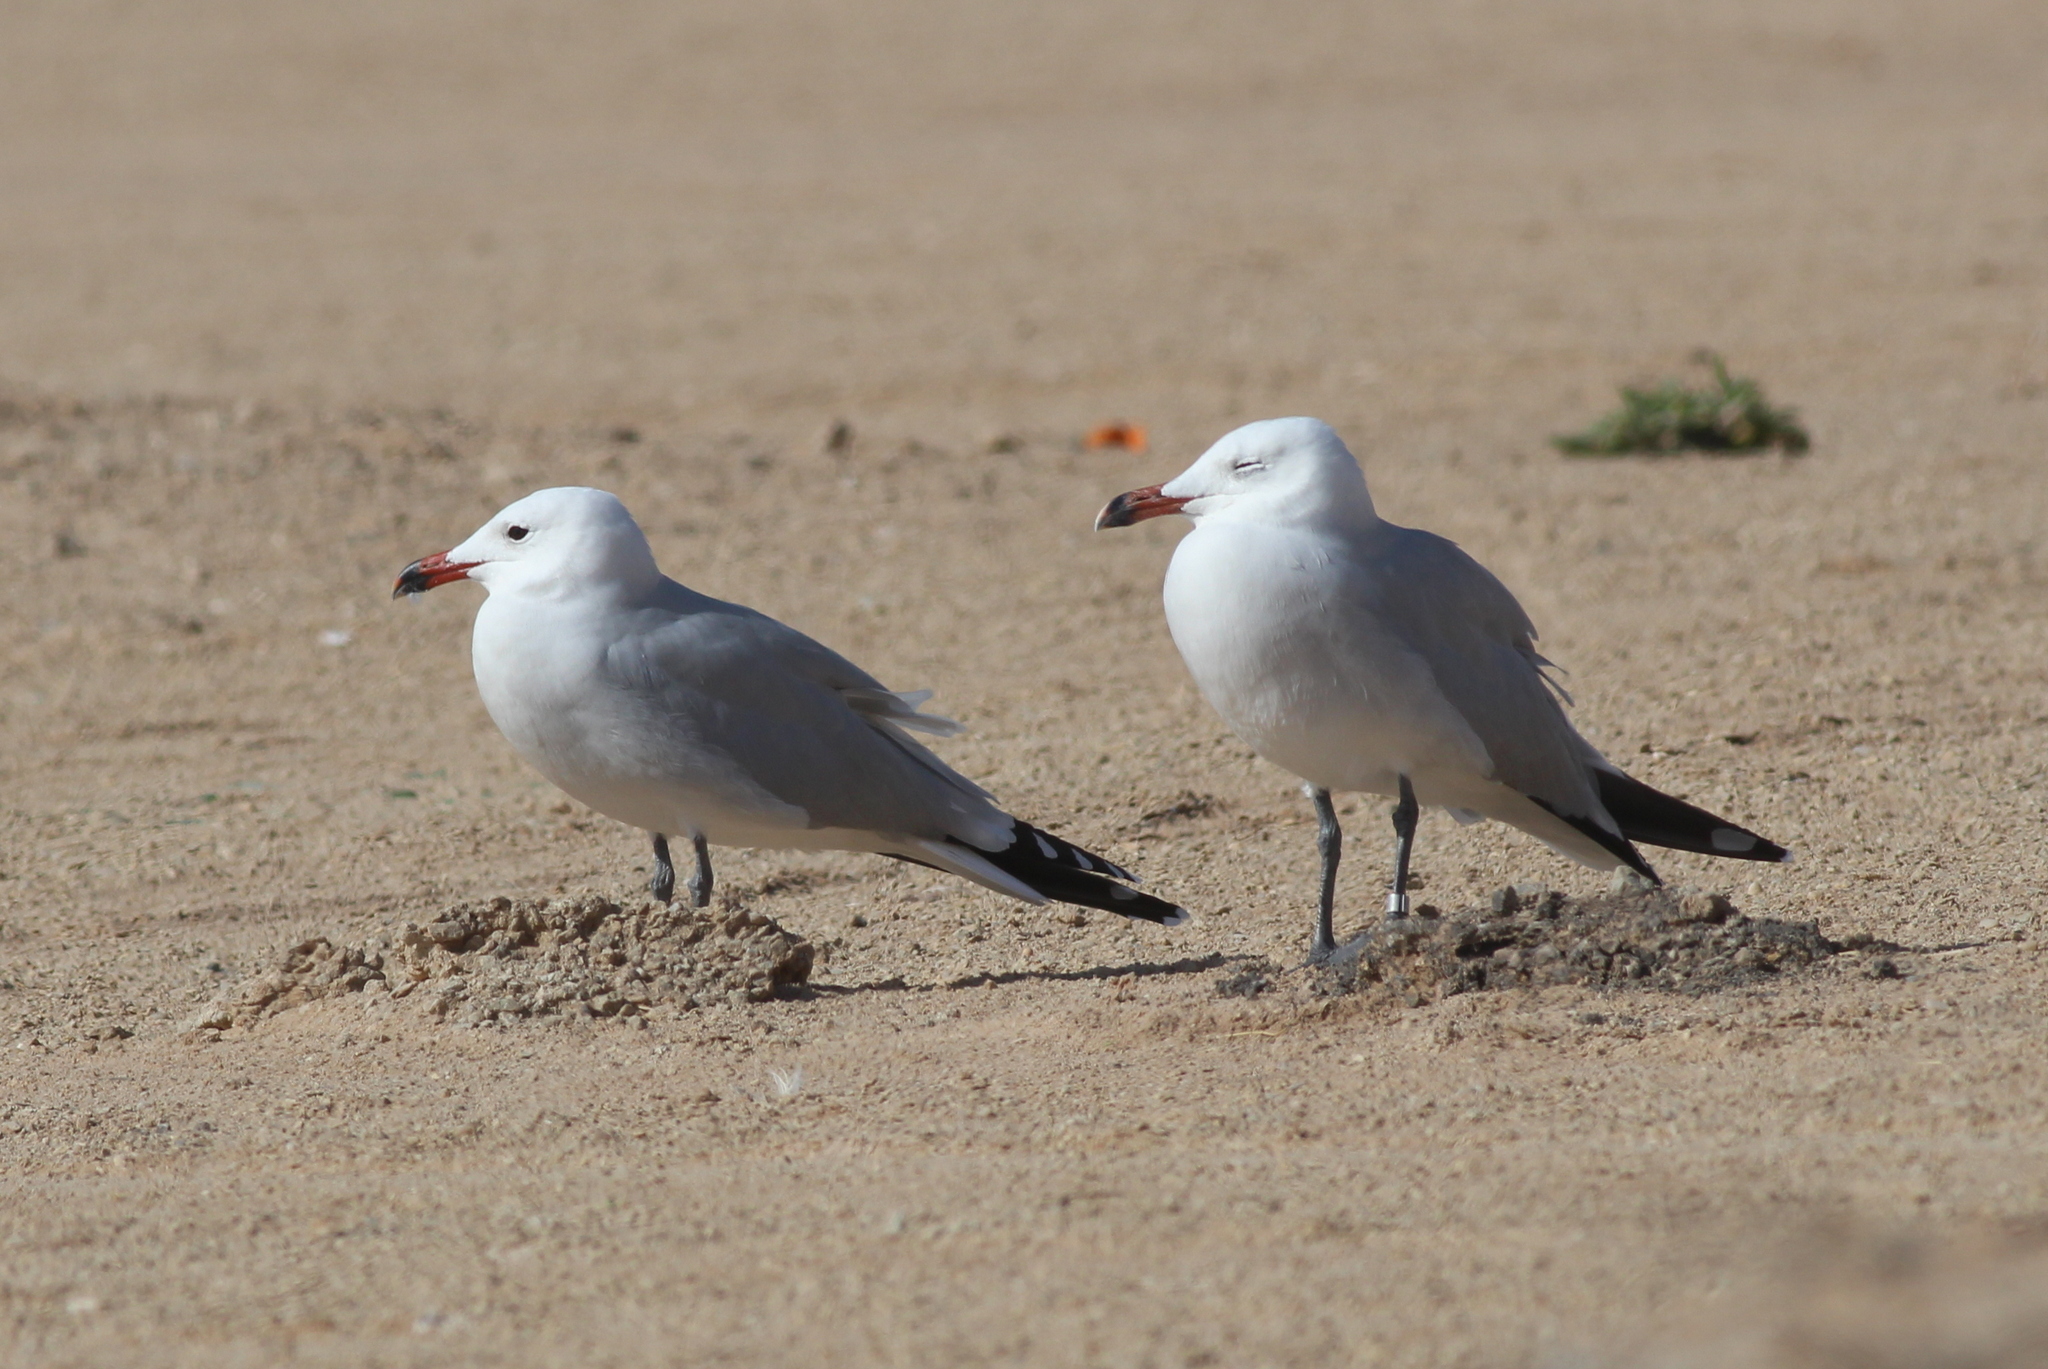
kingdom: Animalia
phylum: Chordata
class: Aves
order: Charadriiformes
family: Laridae
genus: Ichthyaetus
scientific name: Ichthyaetus audouinii
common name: Audouin's gull
